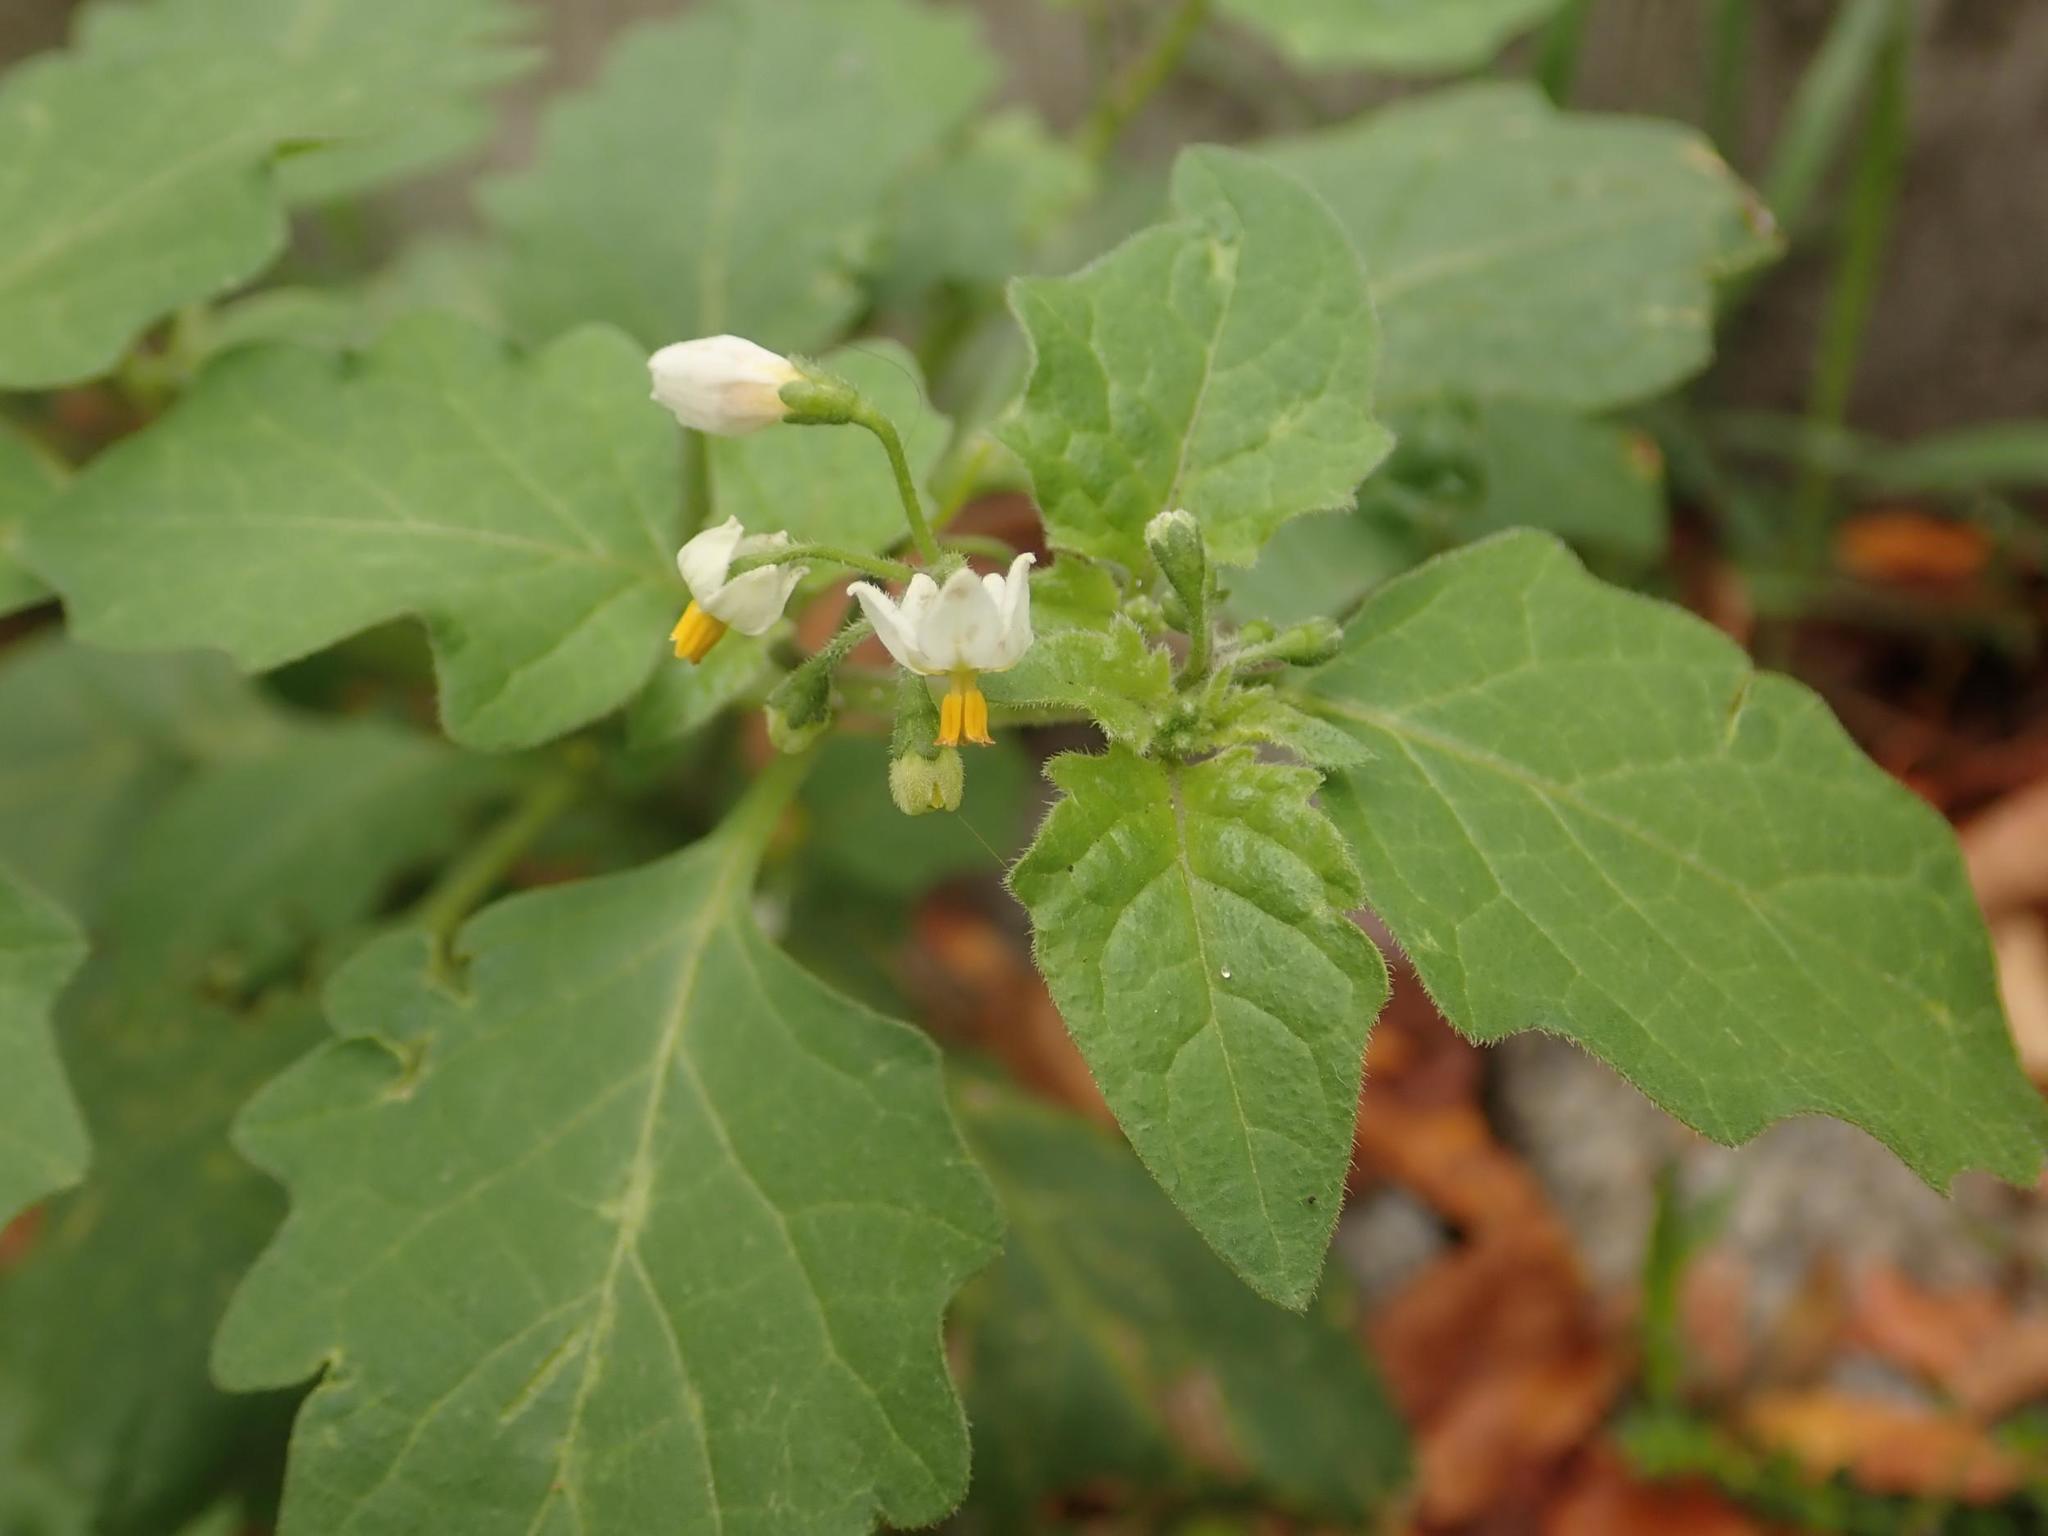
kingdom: Plantae
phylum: Tracheophyta
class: Magnoliopsida
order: Solanales
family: Solanaceae
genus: Solanum
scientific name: Solanum nigrum
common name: Black nightshade
